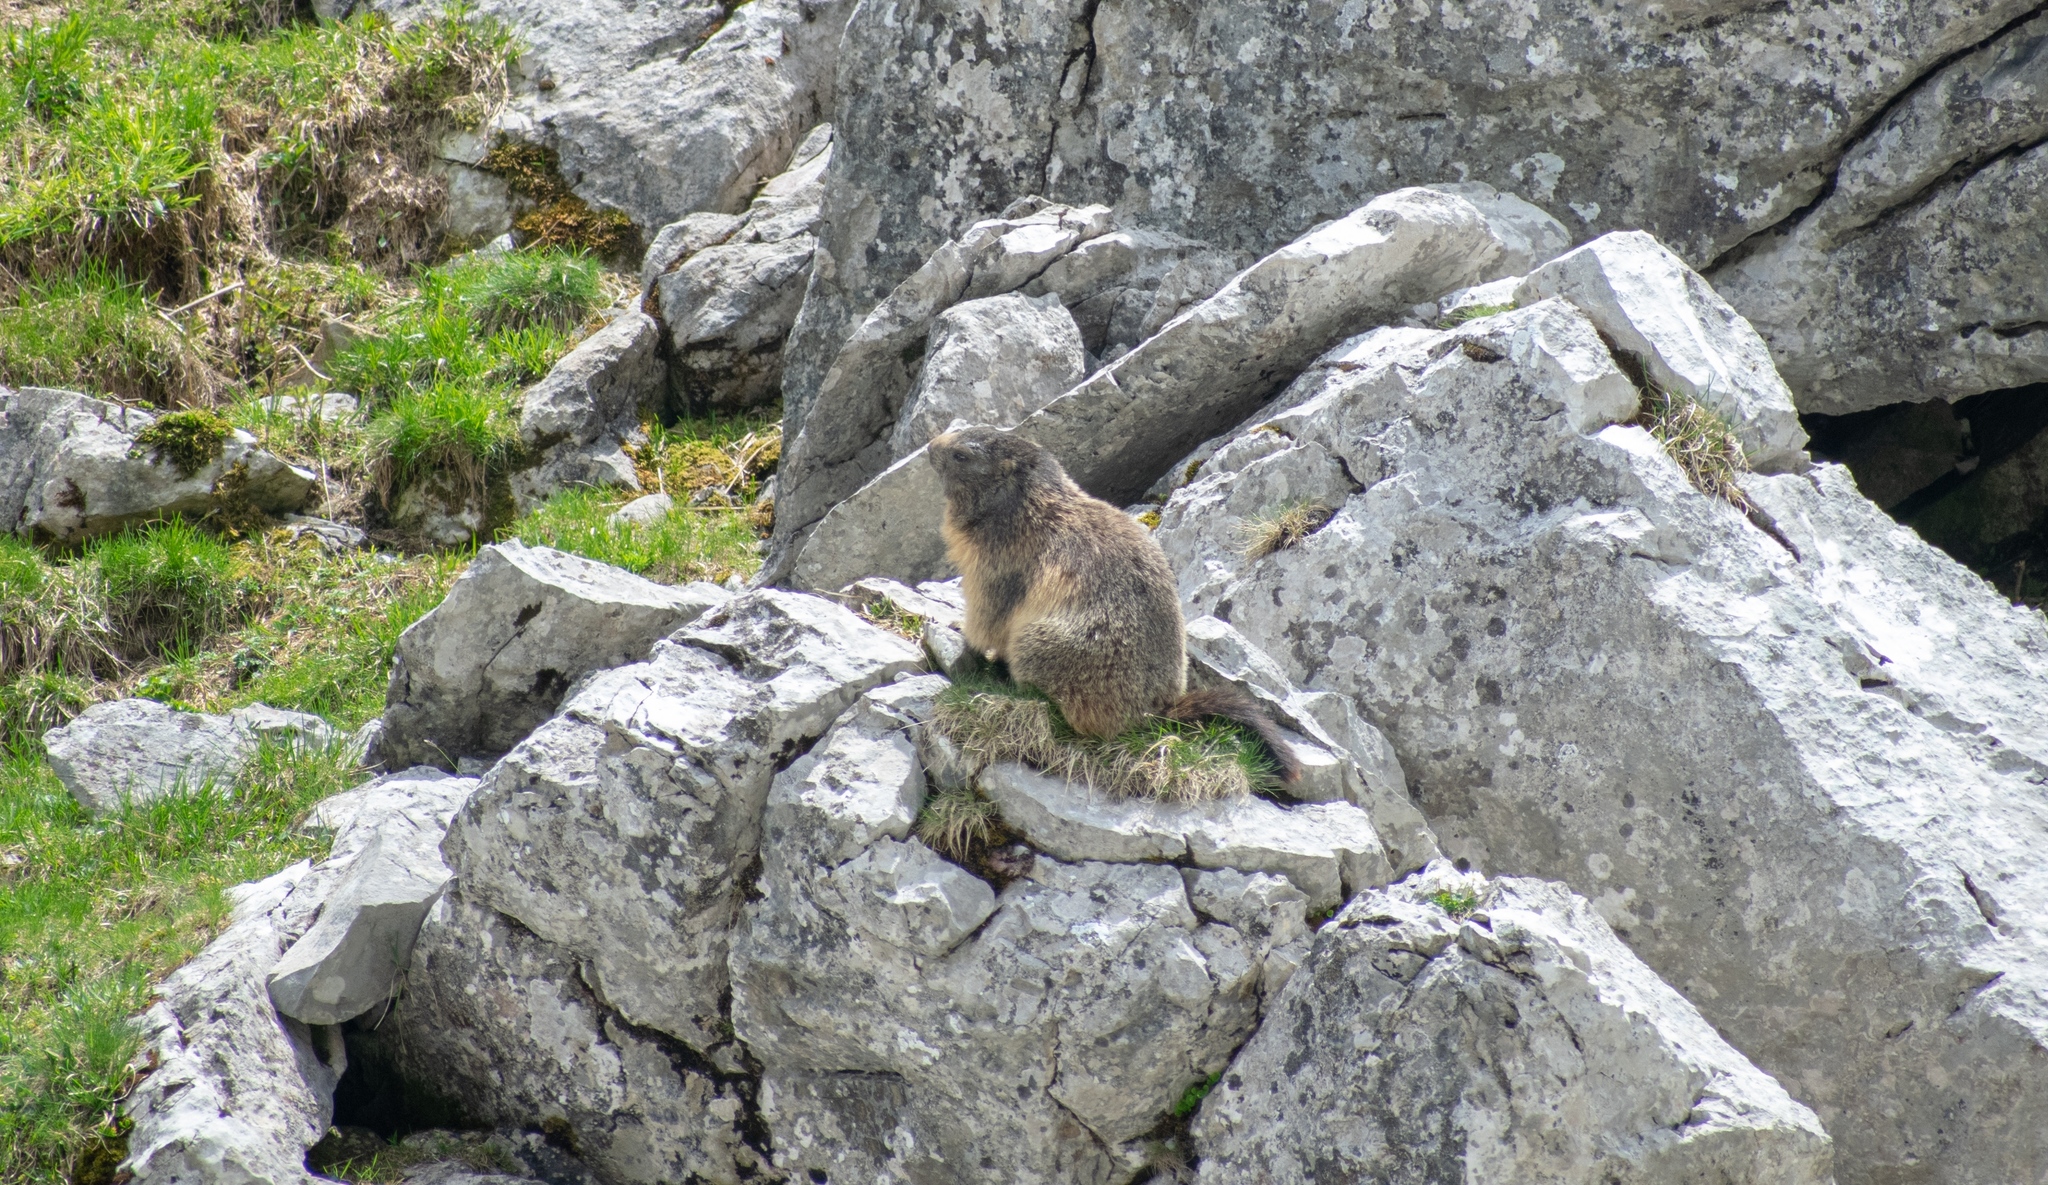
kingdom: Animalia
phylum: Chordata
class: Mammalia
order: Rodentia
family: Sciuridae
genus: Marmota
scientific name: Marmota marmota
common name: Alpine marmot
